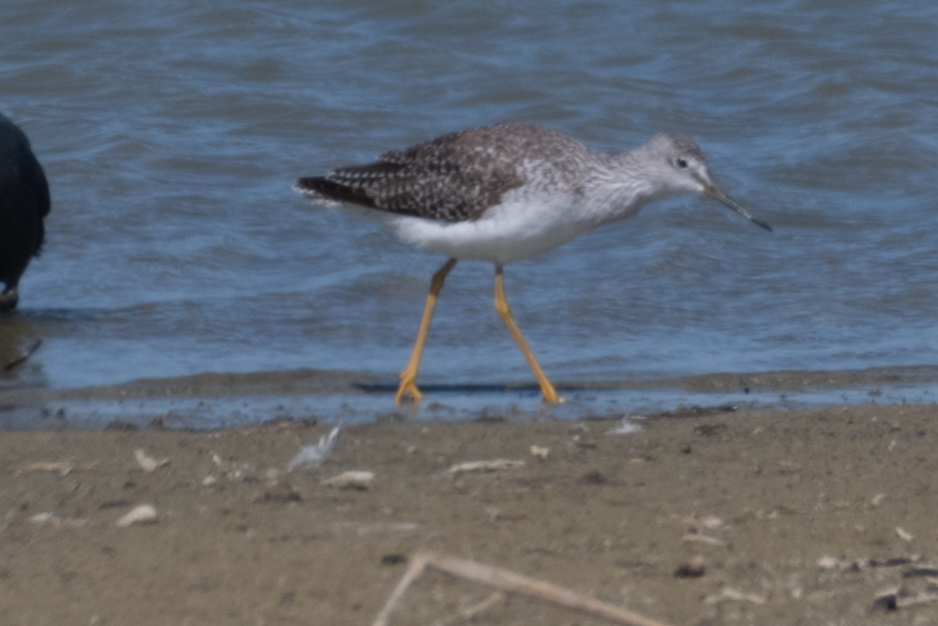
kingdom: Animalia
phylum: Chordata
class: Aves
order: Charadriiformes
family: Scolopacidae
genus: Tringa
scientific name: Tringa melanoleuca
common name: Greater yellowlegs
